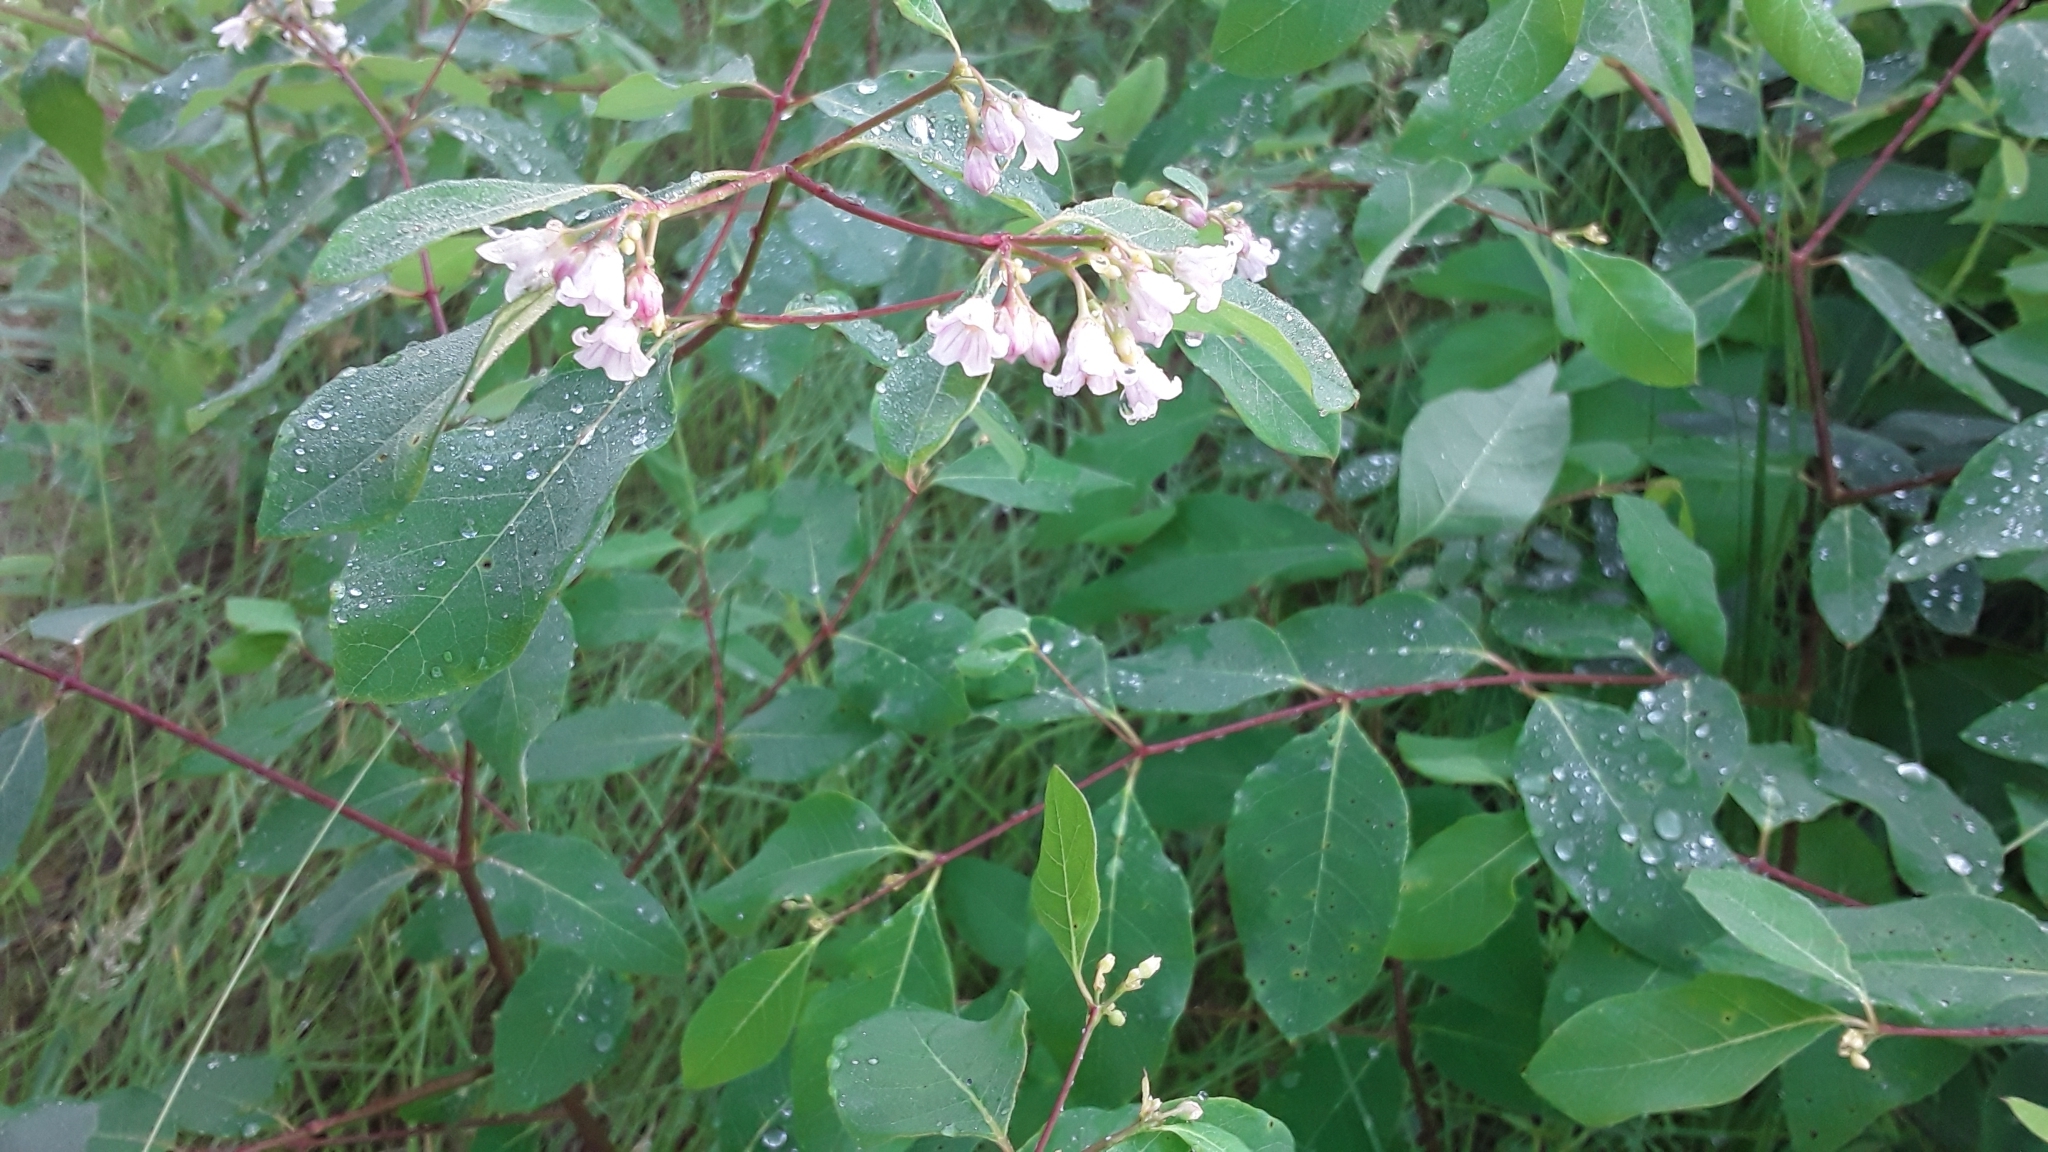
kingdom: Plantae
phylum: Tracheophyta
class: Magnoliopsida
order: Gentianales
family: Apocynaceae
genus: Apocynum
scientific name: Apocynum androsaemifolium
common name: Spreading dogbane
